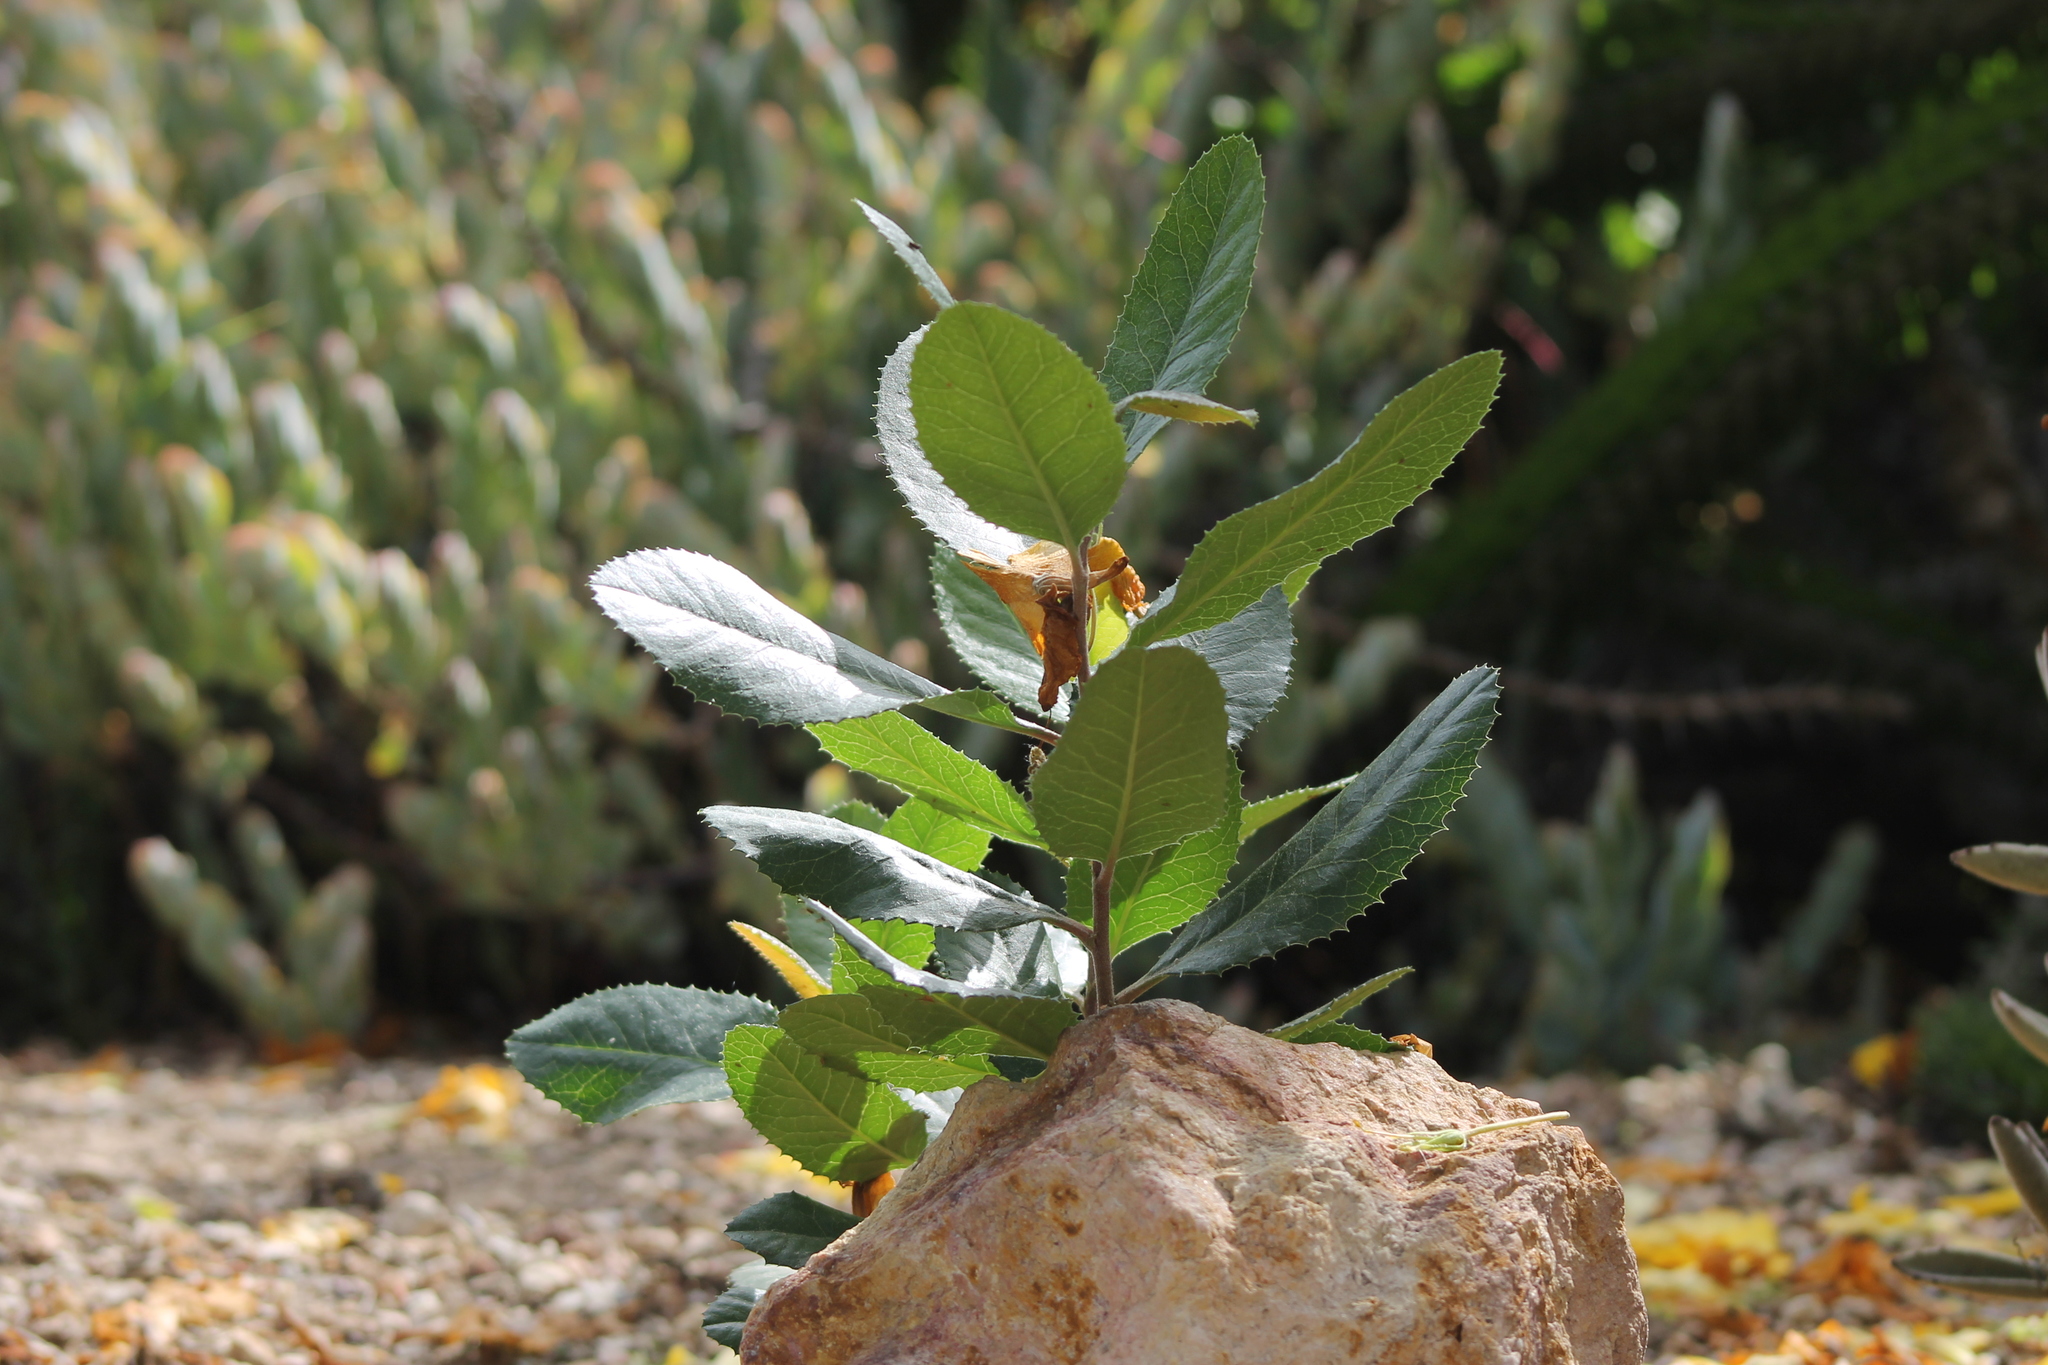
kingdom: Plantae
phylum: Tracheophyta
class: Magnoliopsida
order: Rosales
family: Rosaceae
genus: Heteromeles
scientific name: Heteromeles arbutifolia
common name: California-holly
